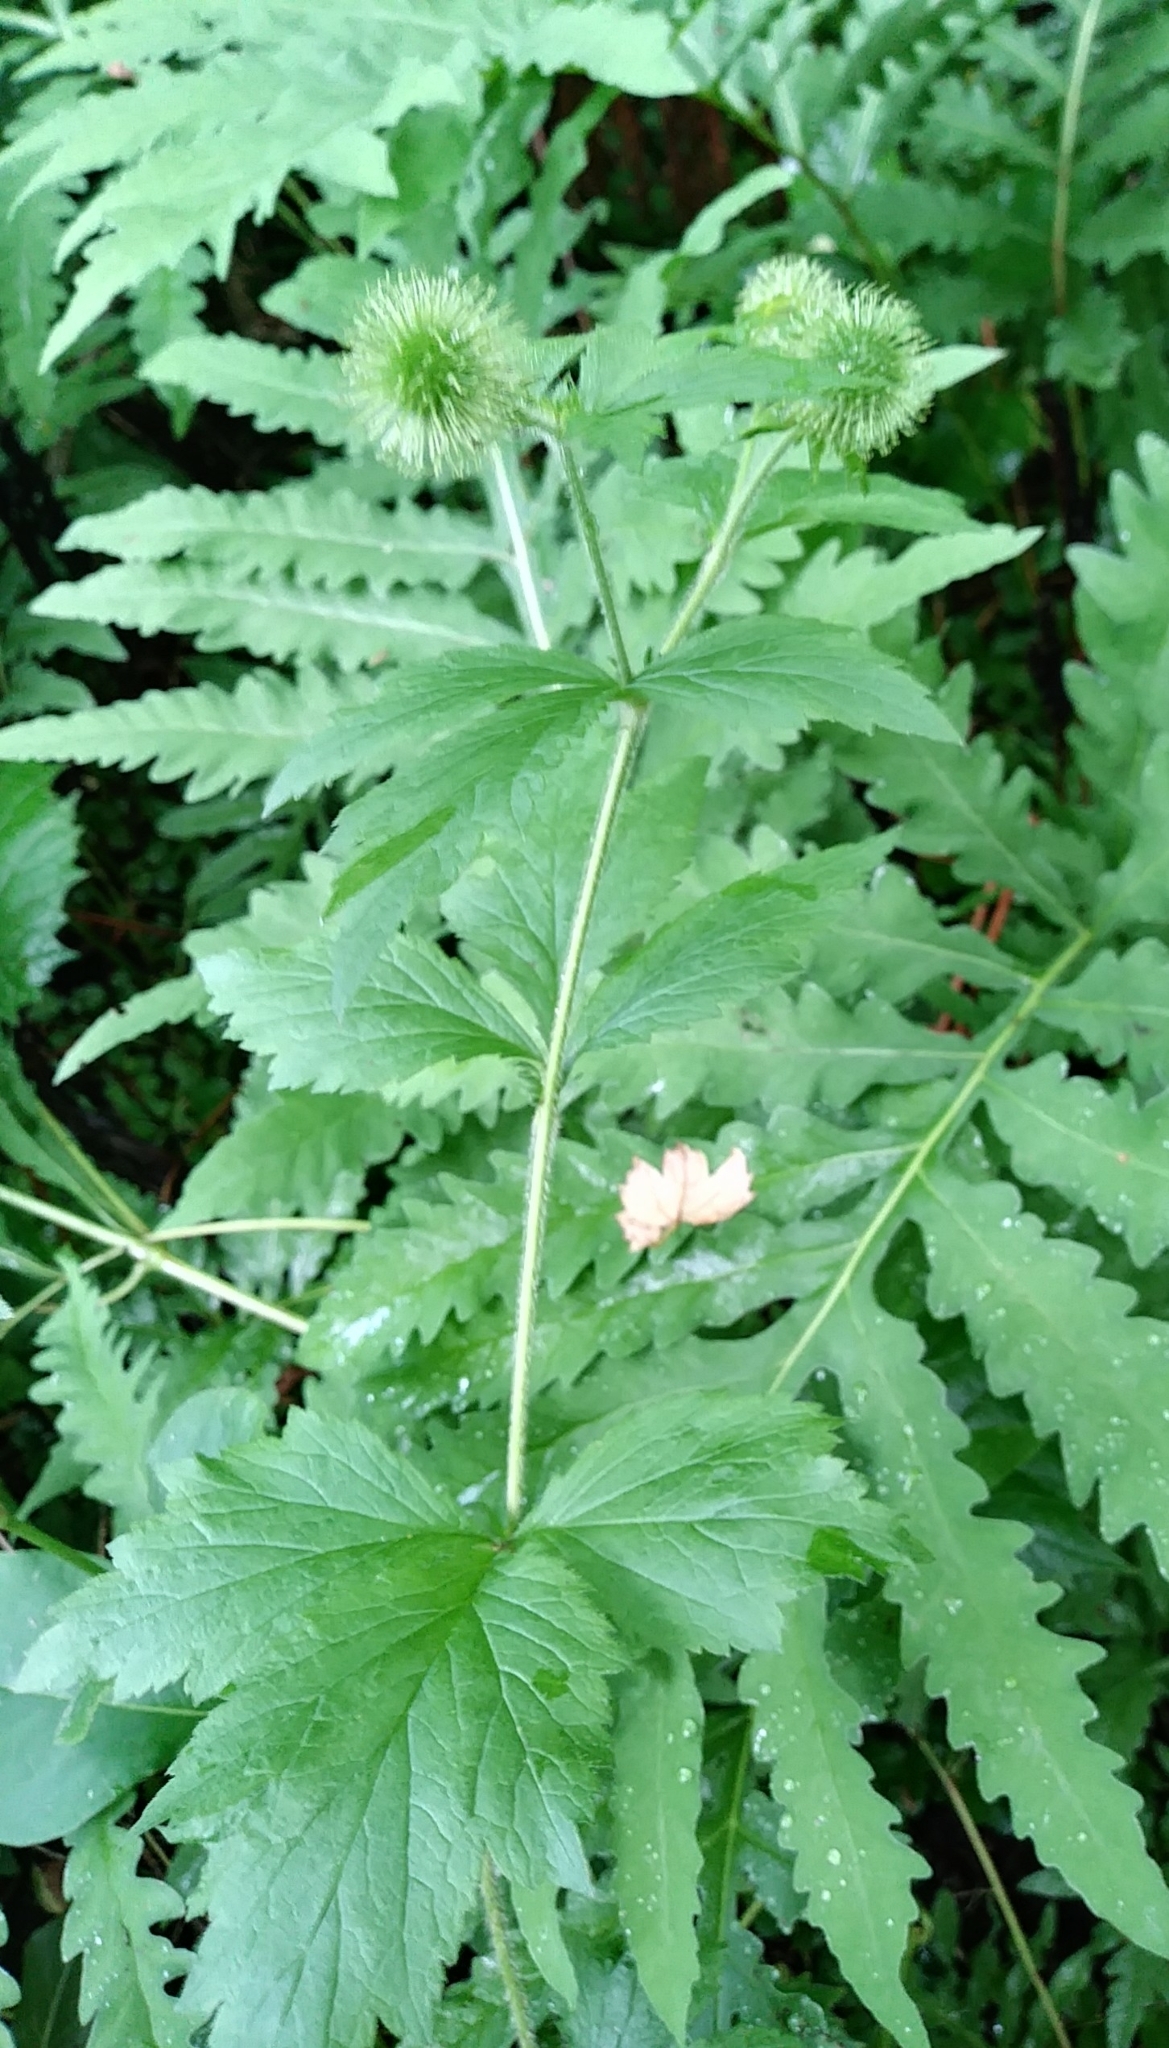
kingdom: Plantae
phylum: Tracheophyta
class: Magnoliopsida
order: Rosales
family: Rosaceae
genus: Geum
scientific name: Geum laciniatum
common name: Rough avens
